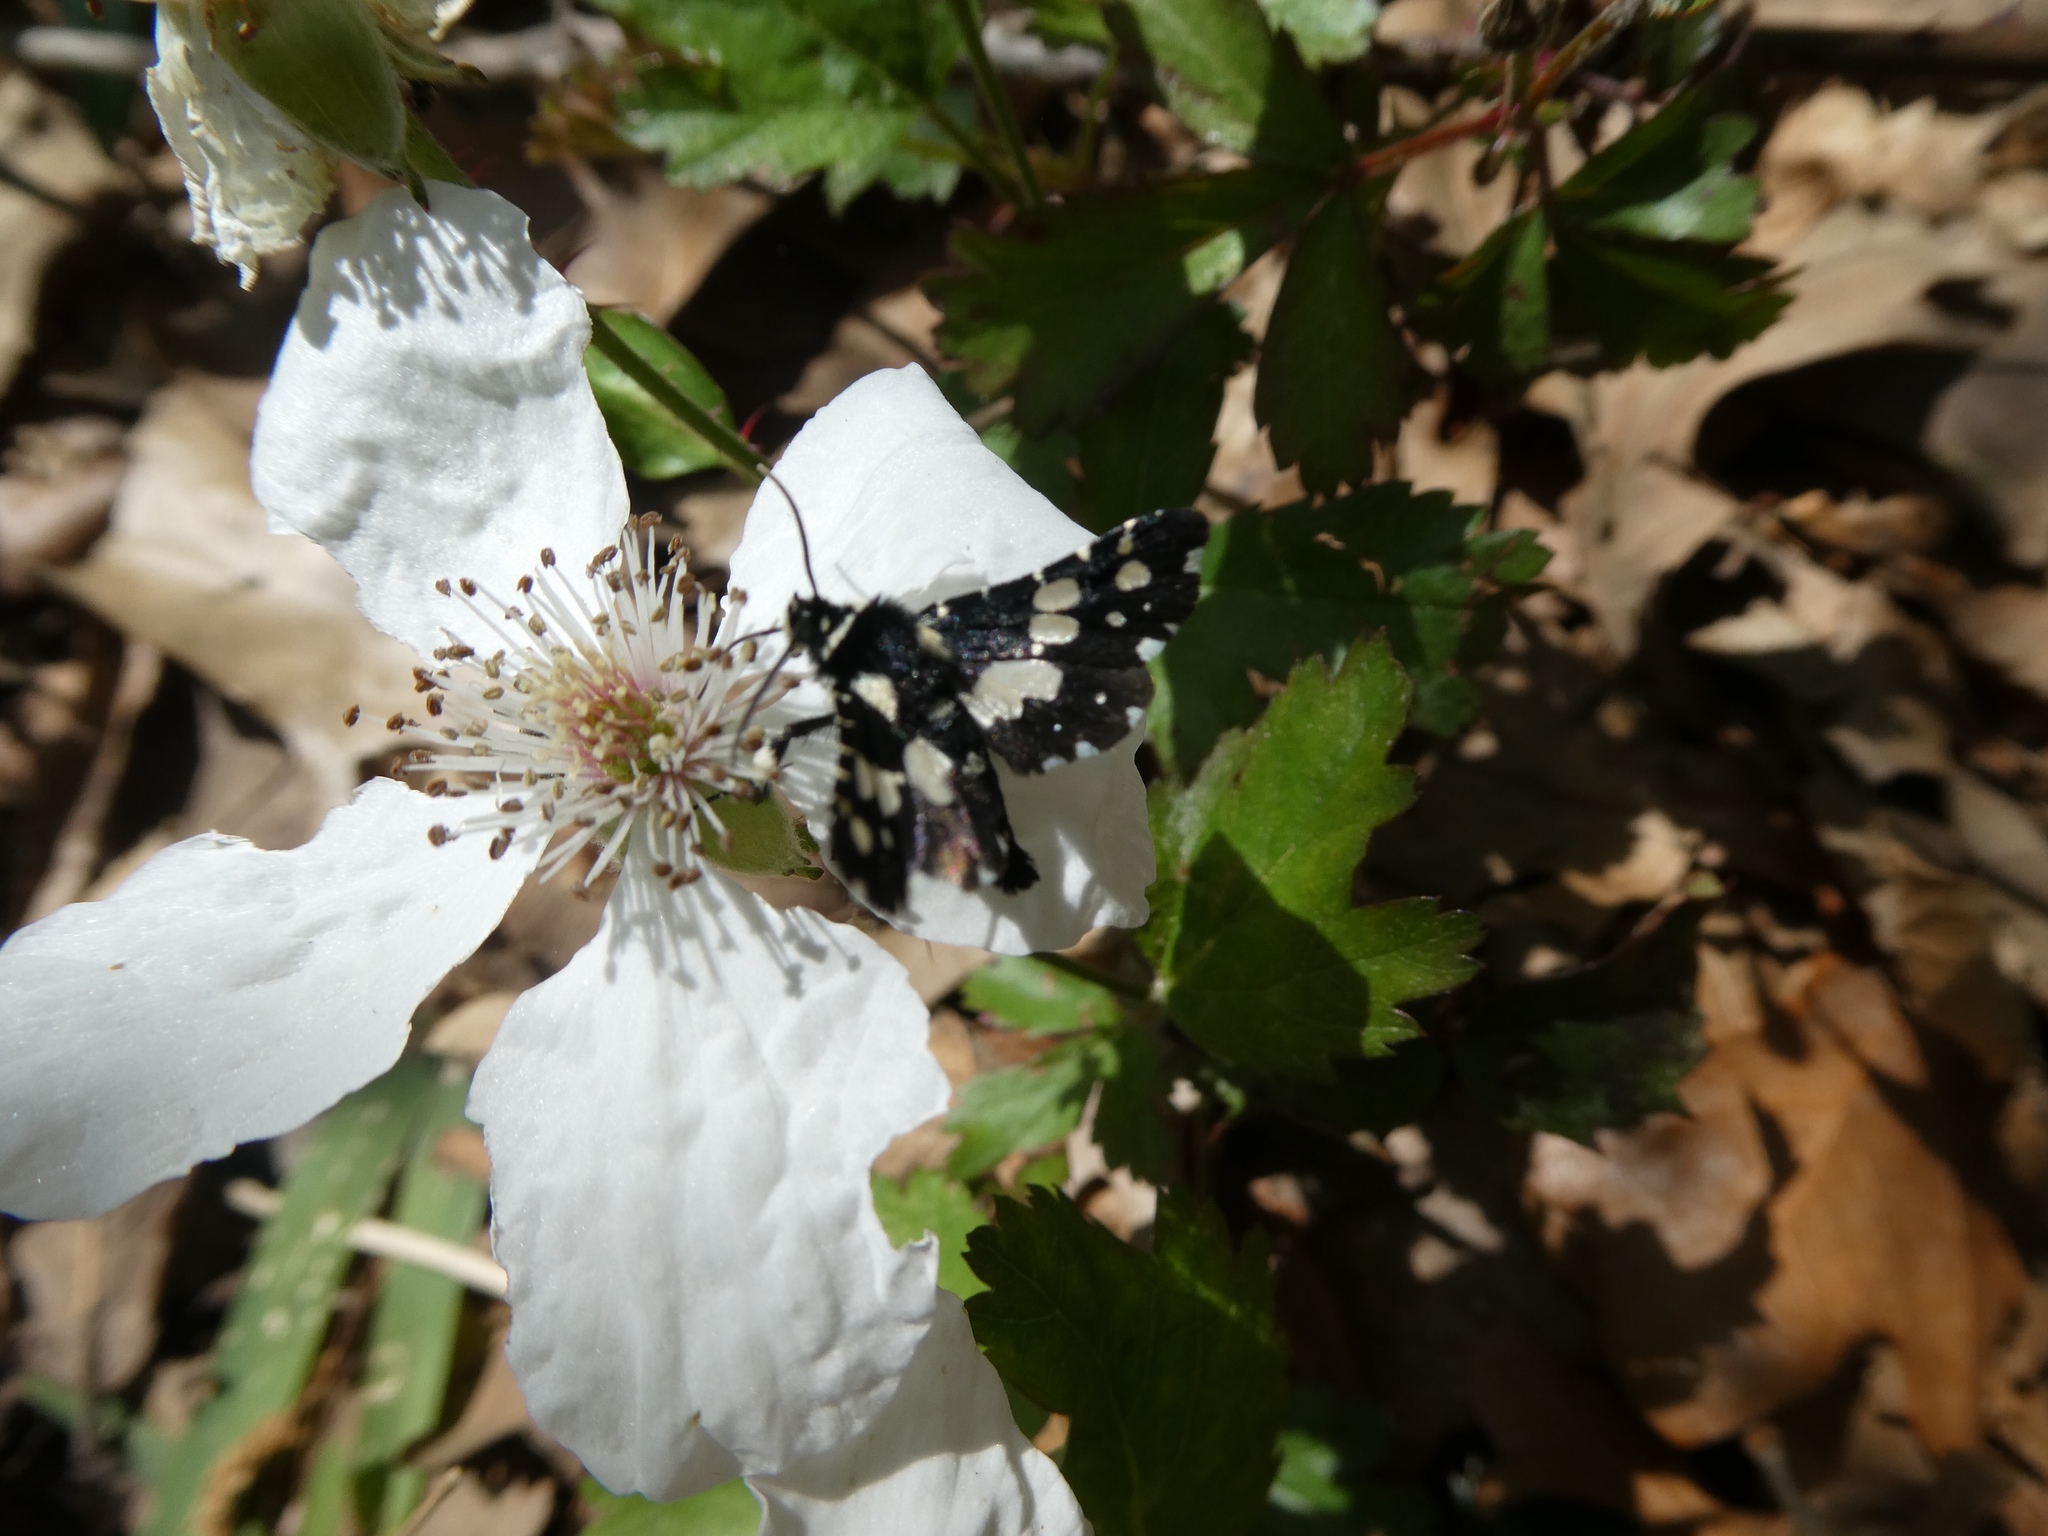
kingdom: Animalia
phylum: Arthropoda
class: Insecta
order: Lepidoptera
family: Thyrididae
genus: Pseudothyris
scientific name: Pseudothyris sepulchralis
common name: Mournful thyris moth
